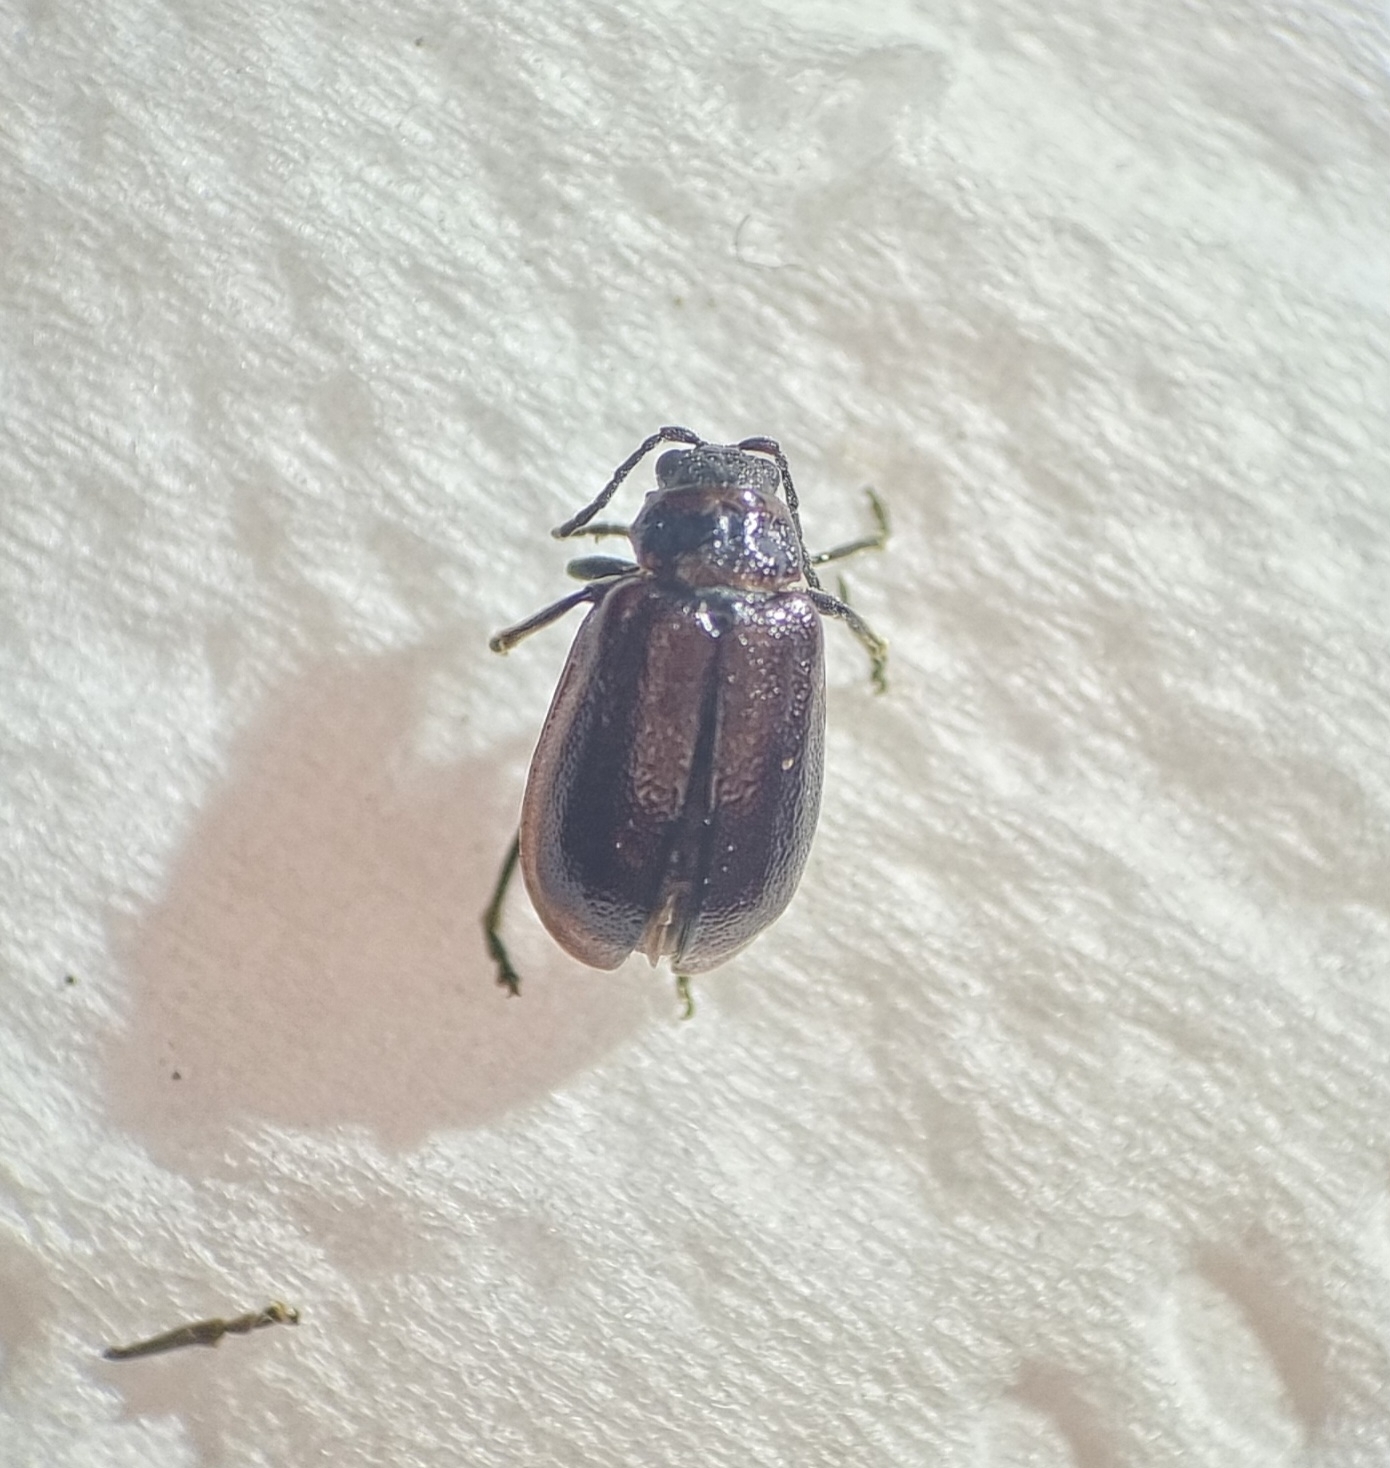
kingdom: Animalia
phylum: Arthropoda
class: Insecta
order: Coleoptera
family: Chrysomelidae
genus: Lochmaea
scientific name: Lochmaea suturalis
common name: Heather beetle
